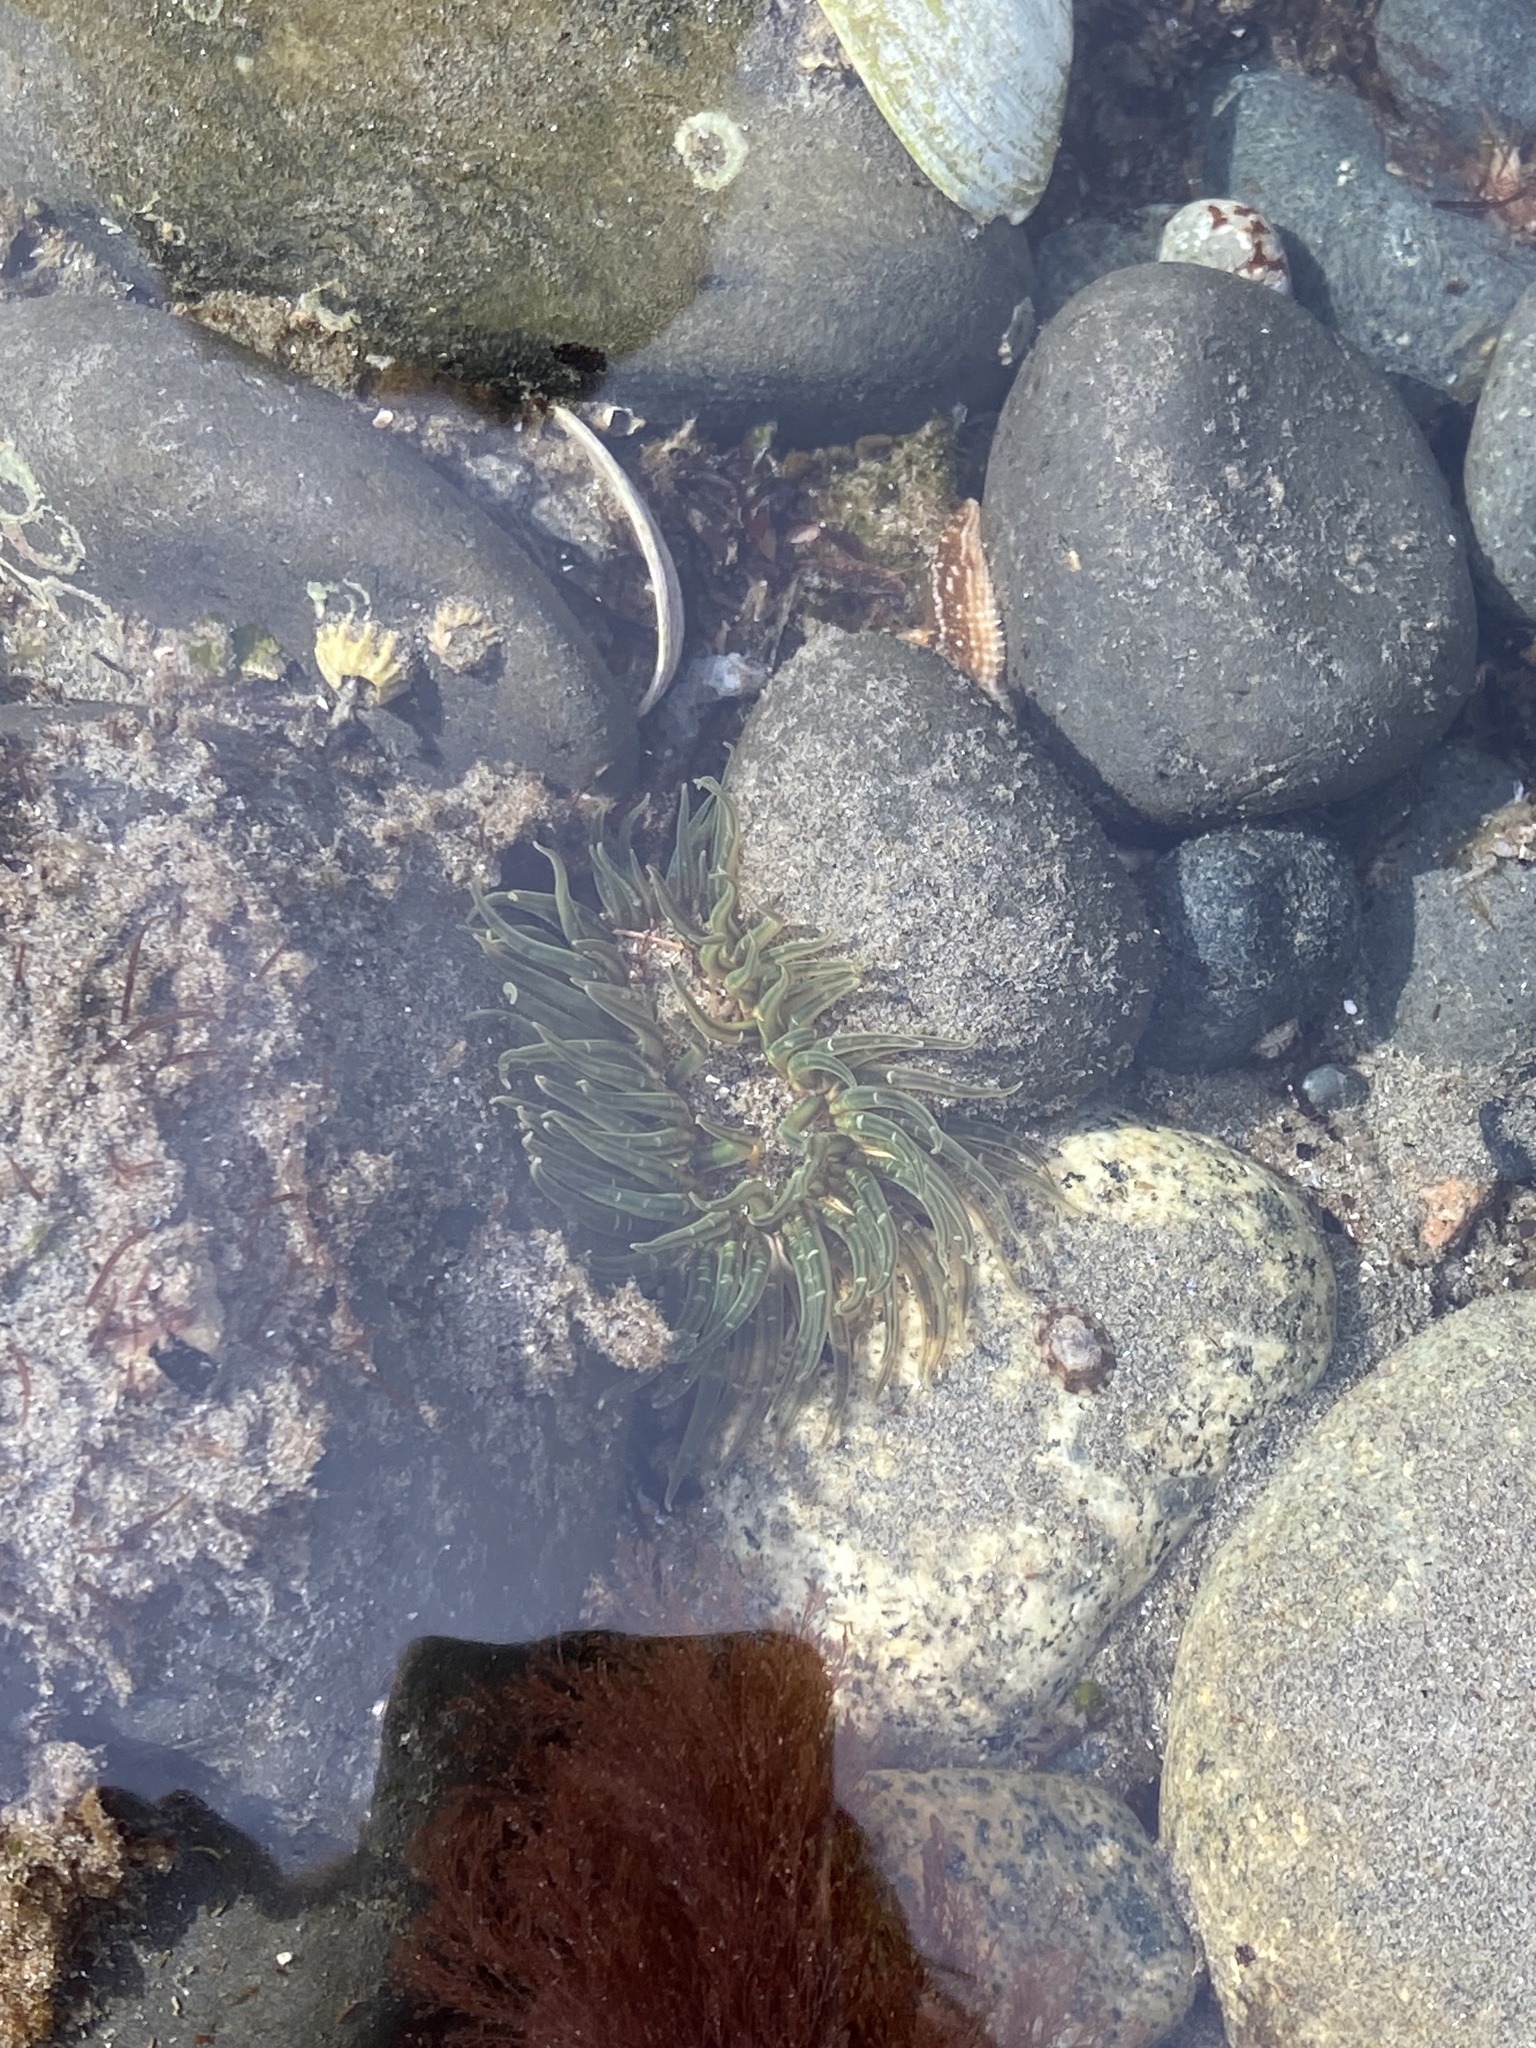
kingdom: Animalia
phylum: Cnidaria
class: Anthozoa
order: Actiniaria
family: Actiniidae
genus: Anthopleura
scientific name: Anthopleura artemisia
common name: Buried sea anemone
